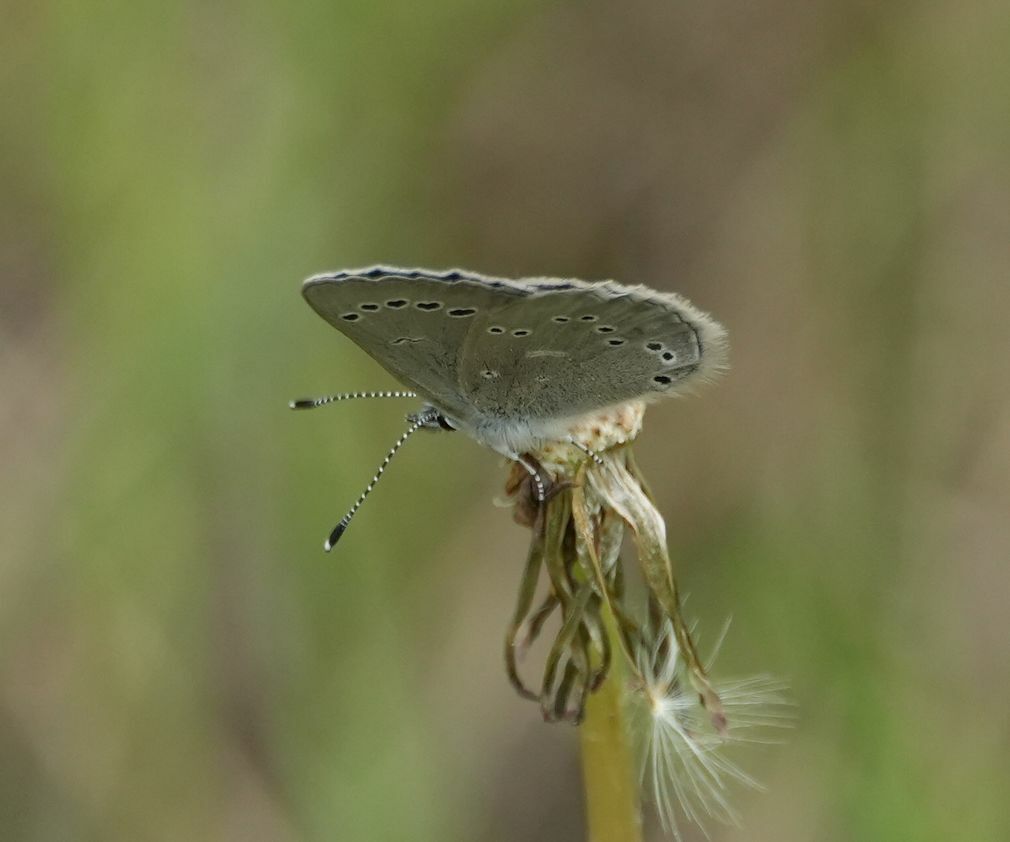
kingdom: Animalia
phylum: Arthropoda
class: Insecta
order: Lepidoptera
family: Lycaenidae
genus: Glaucopsyche
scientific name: Glaucopsyche lygdamus
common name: Silvery blue
